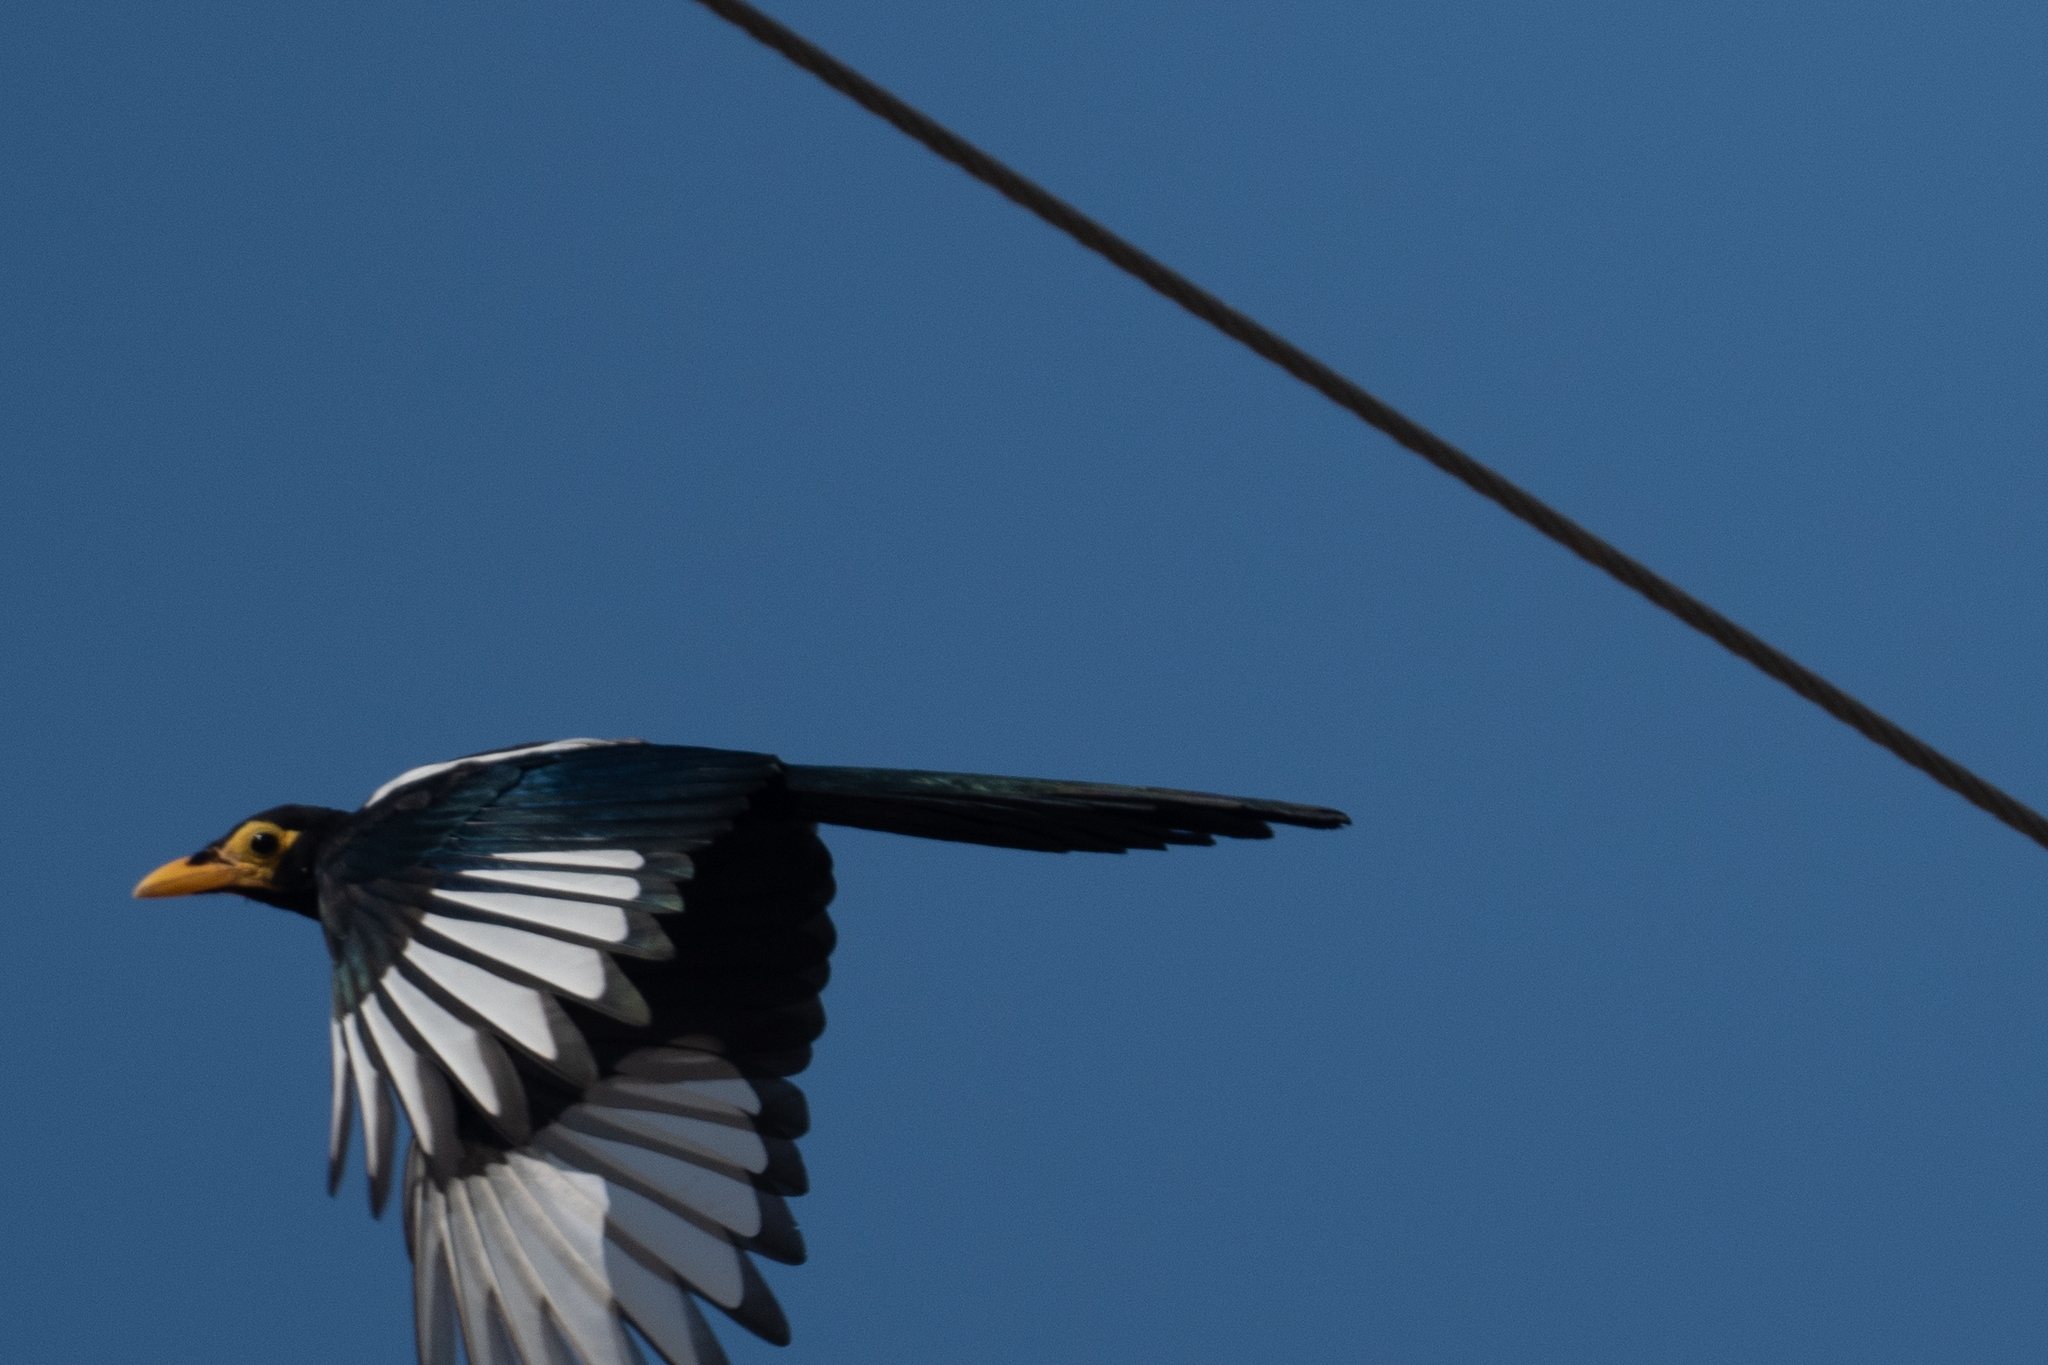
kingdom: Animalia
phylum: Chordata
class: Aves
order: Passeriformes
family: Corvidae
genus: Pica
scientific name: Pica nuttalli
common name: Yellow-billed magpie
